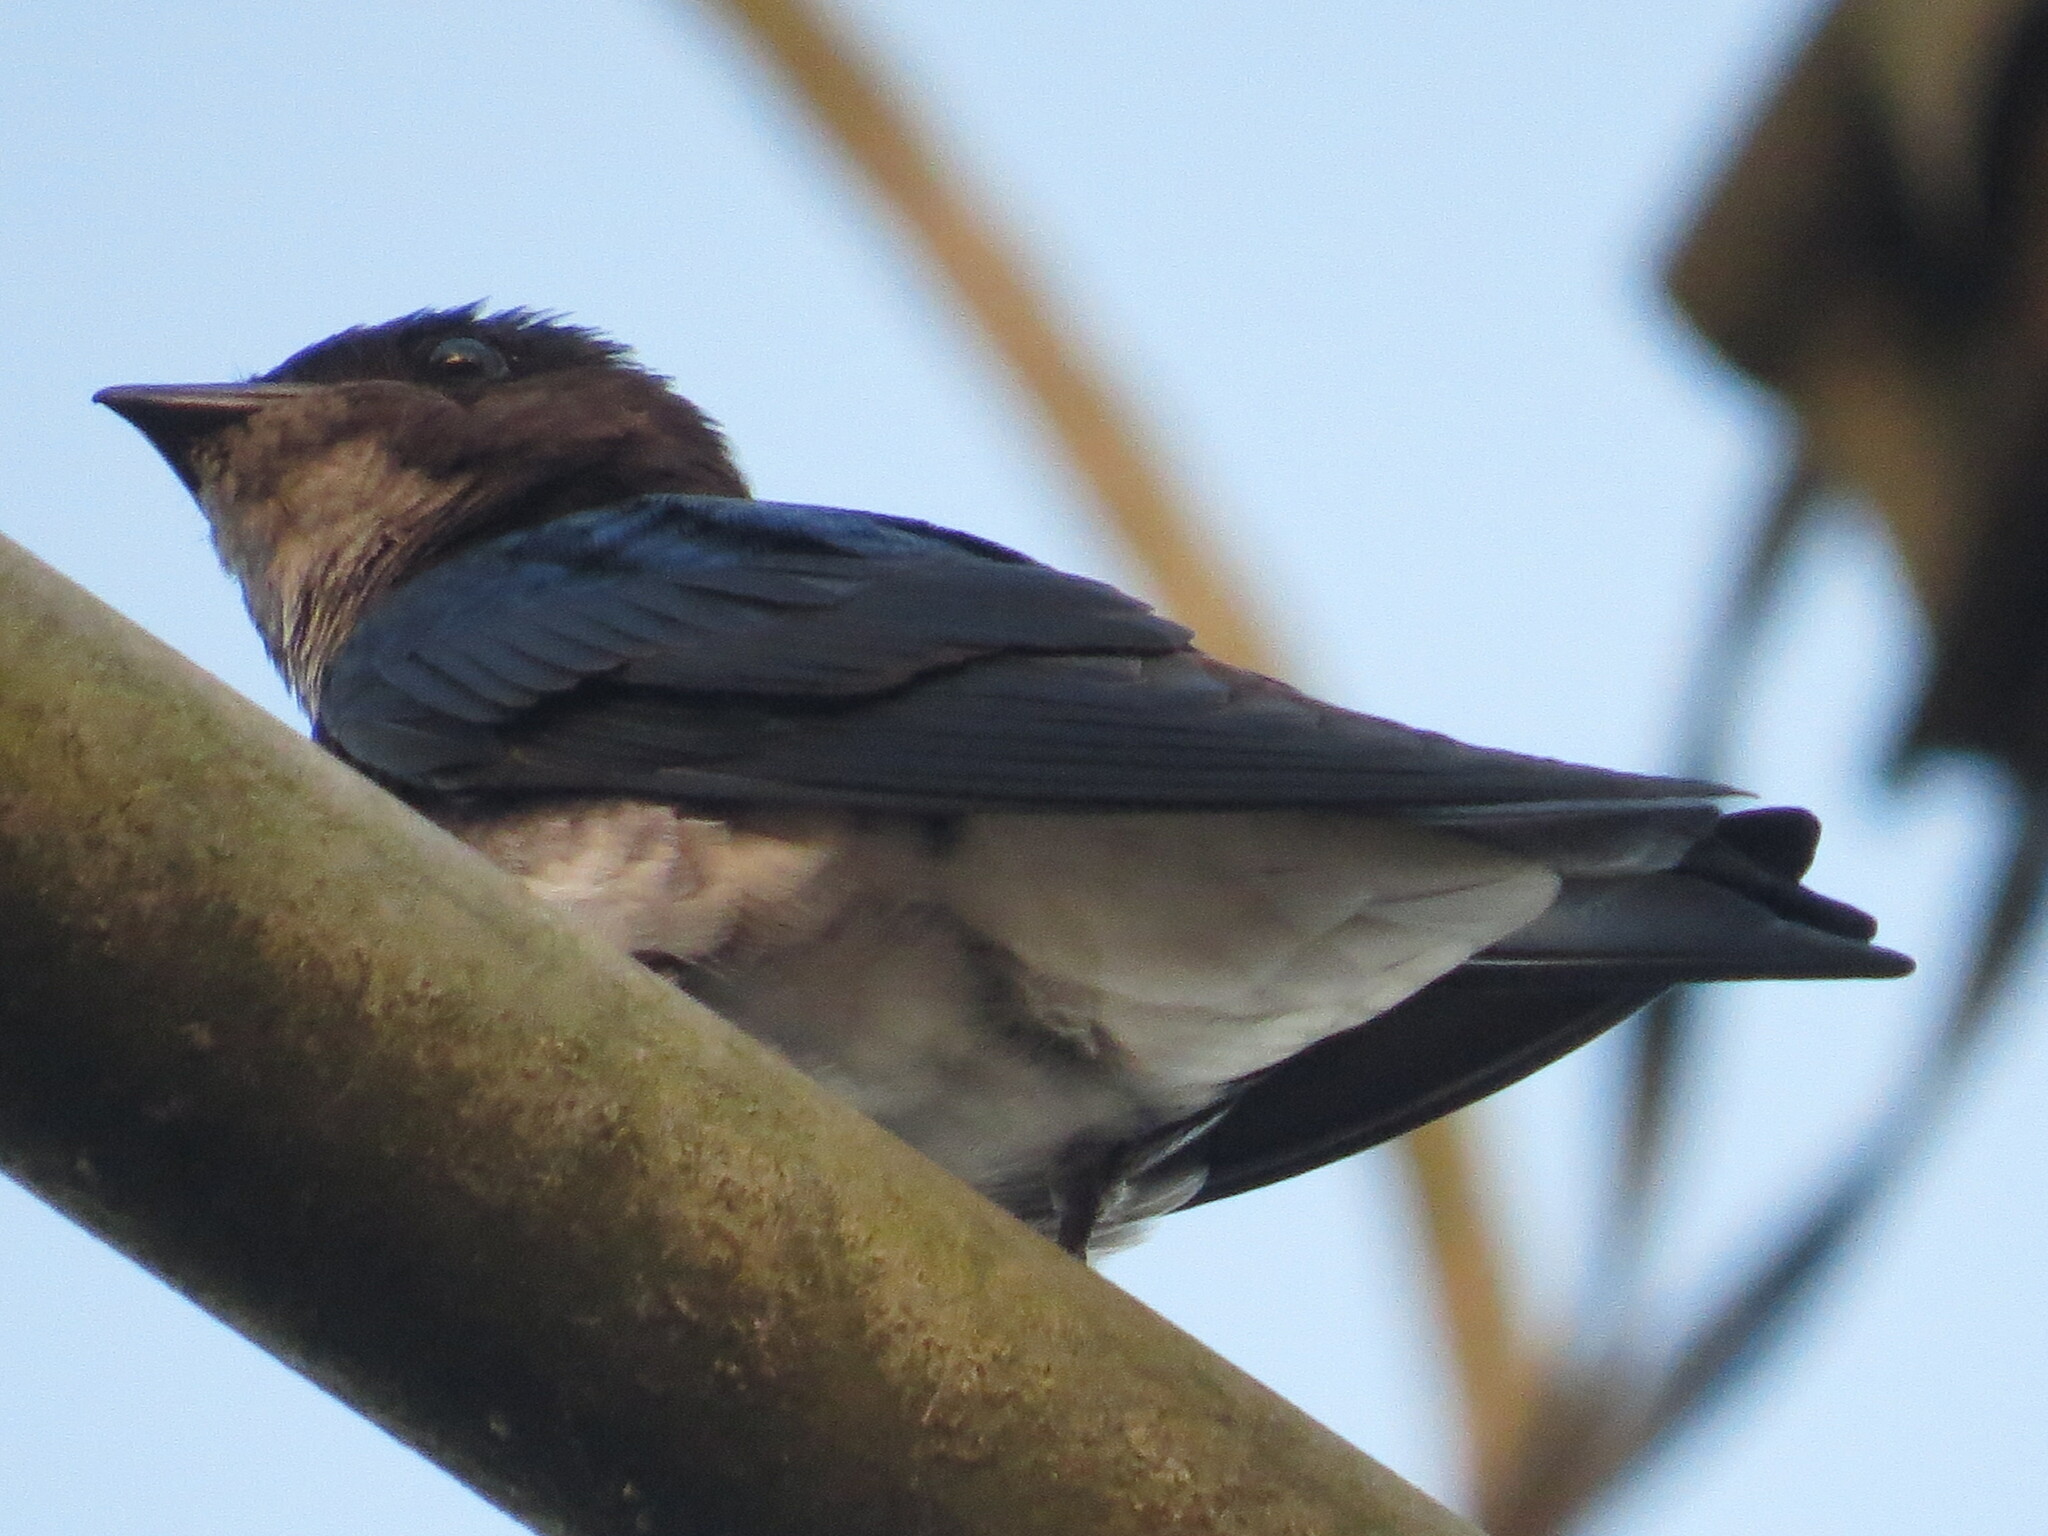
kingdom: Animalia
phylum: Chordata
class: Aves
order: Passeriformes
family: Hirundinidae
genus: Hirundo
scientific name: Hirundo rustica
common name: Barn swallow
